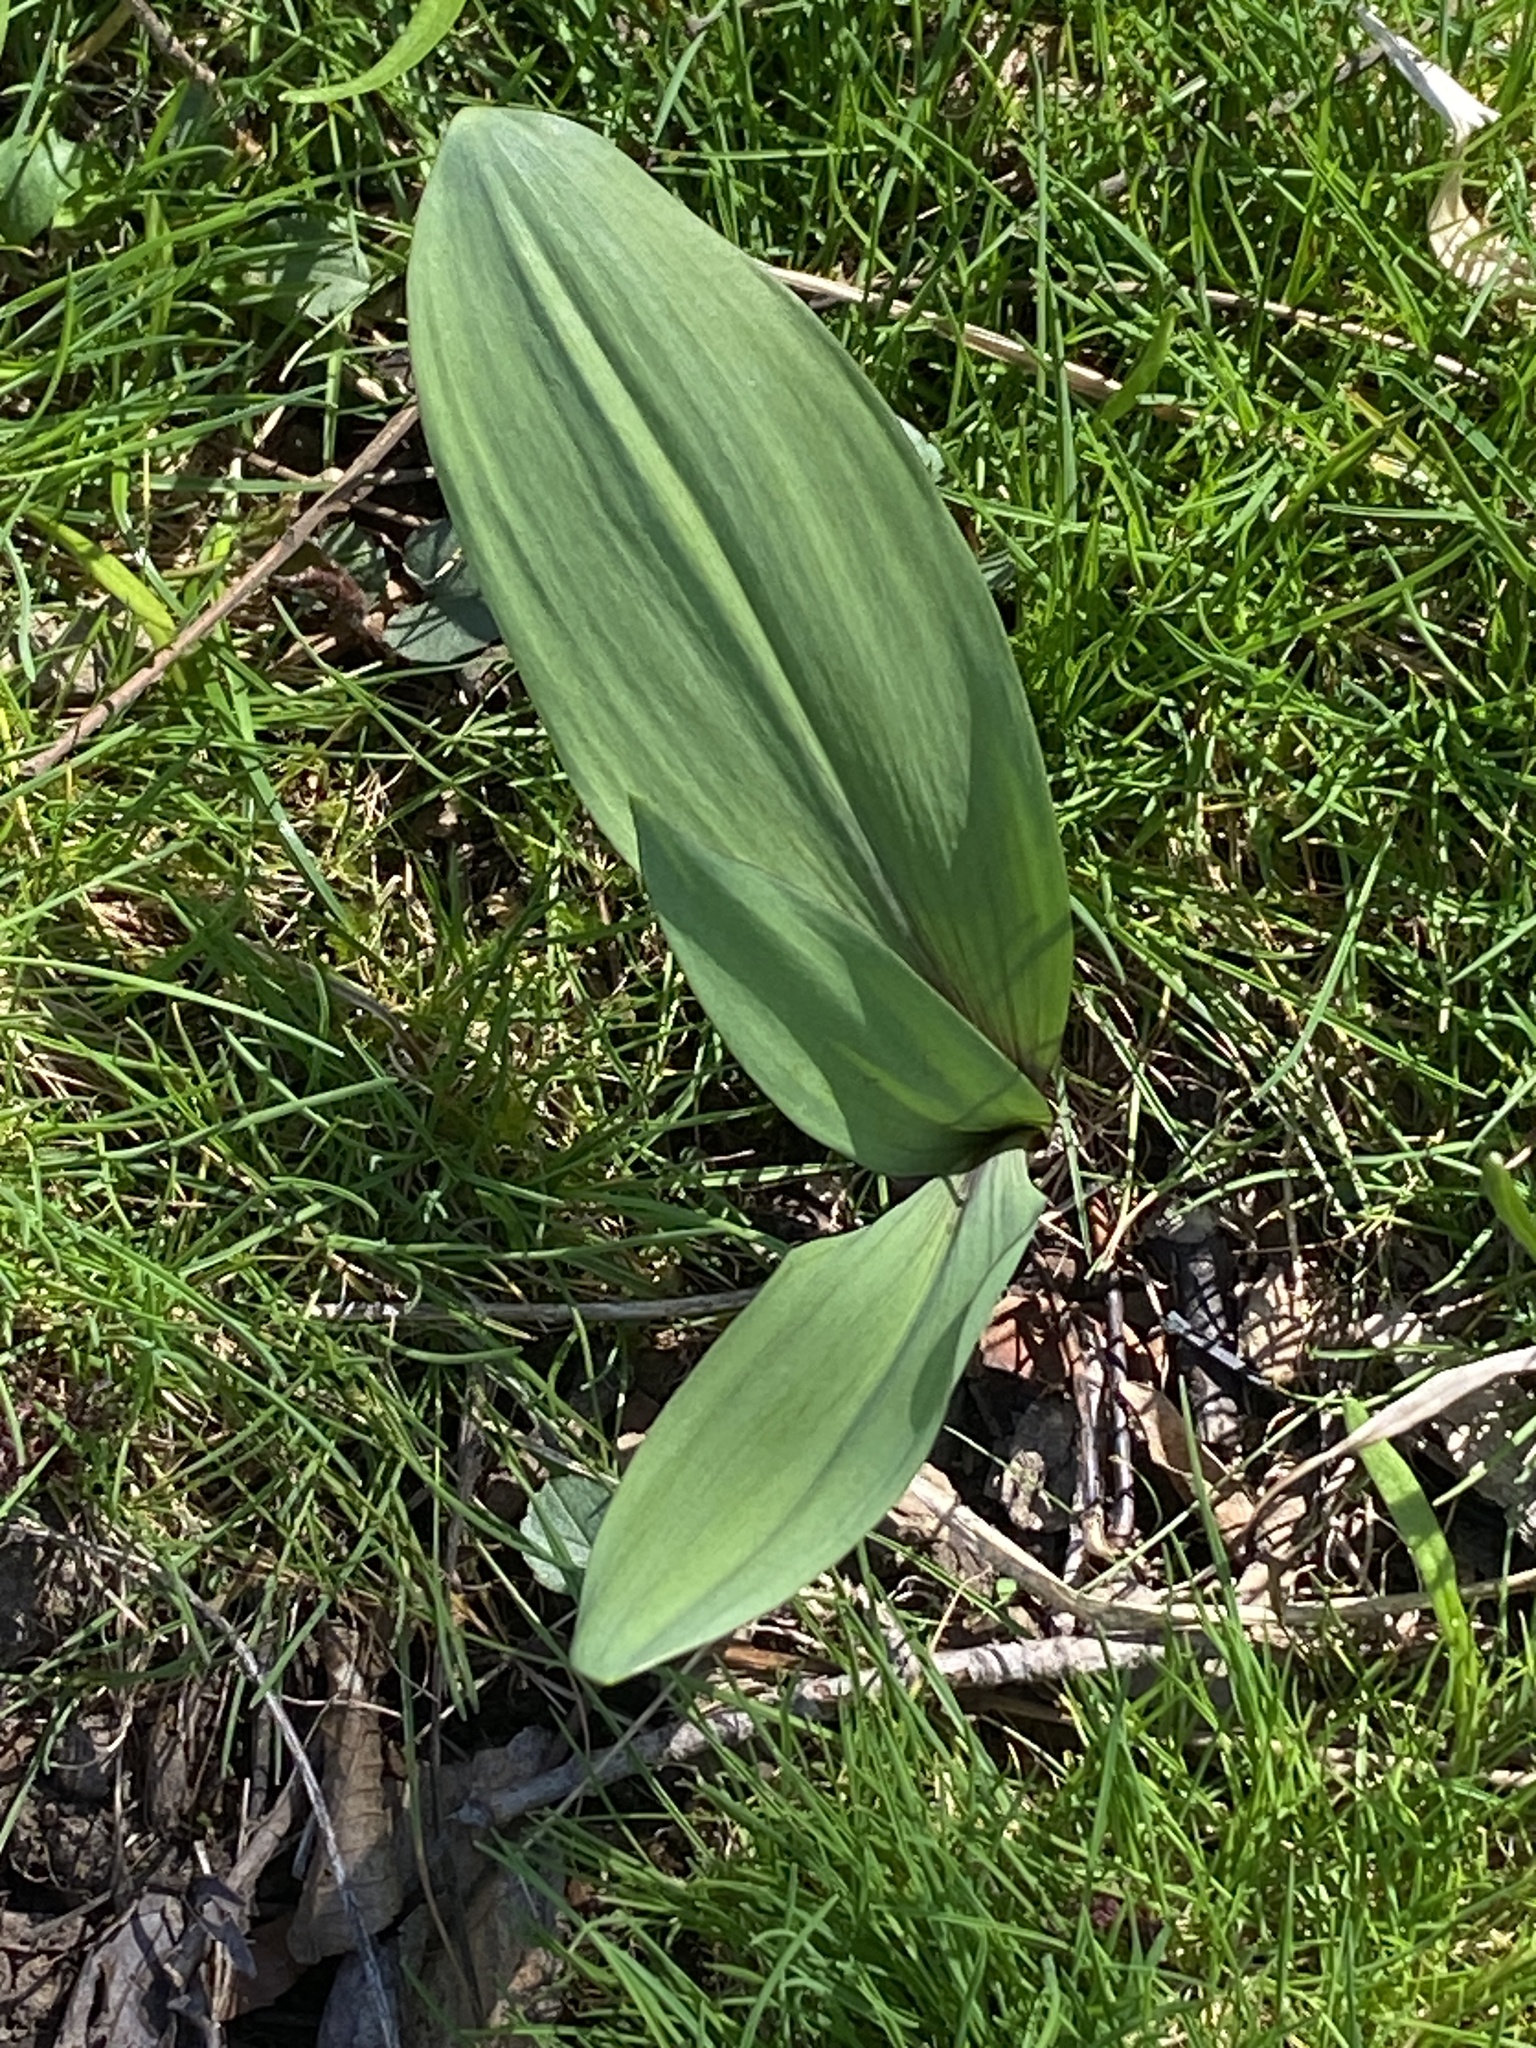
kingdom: Plantae
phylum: Tracheophyta
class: Liliopsida
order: Asparagales
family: Amaryllidaceae
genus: Allium
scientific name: Allium tricoccum
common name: Ramp
